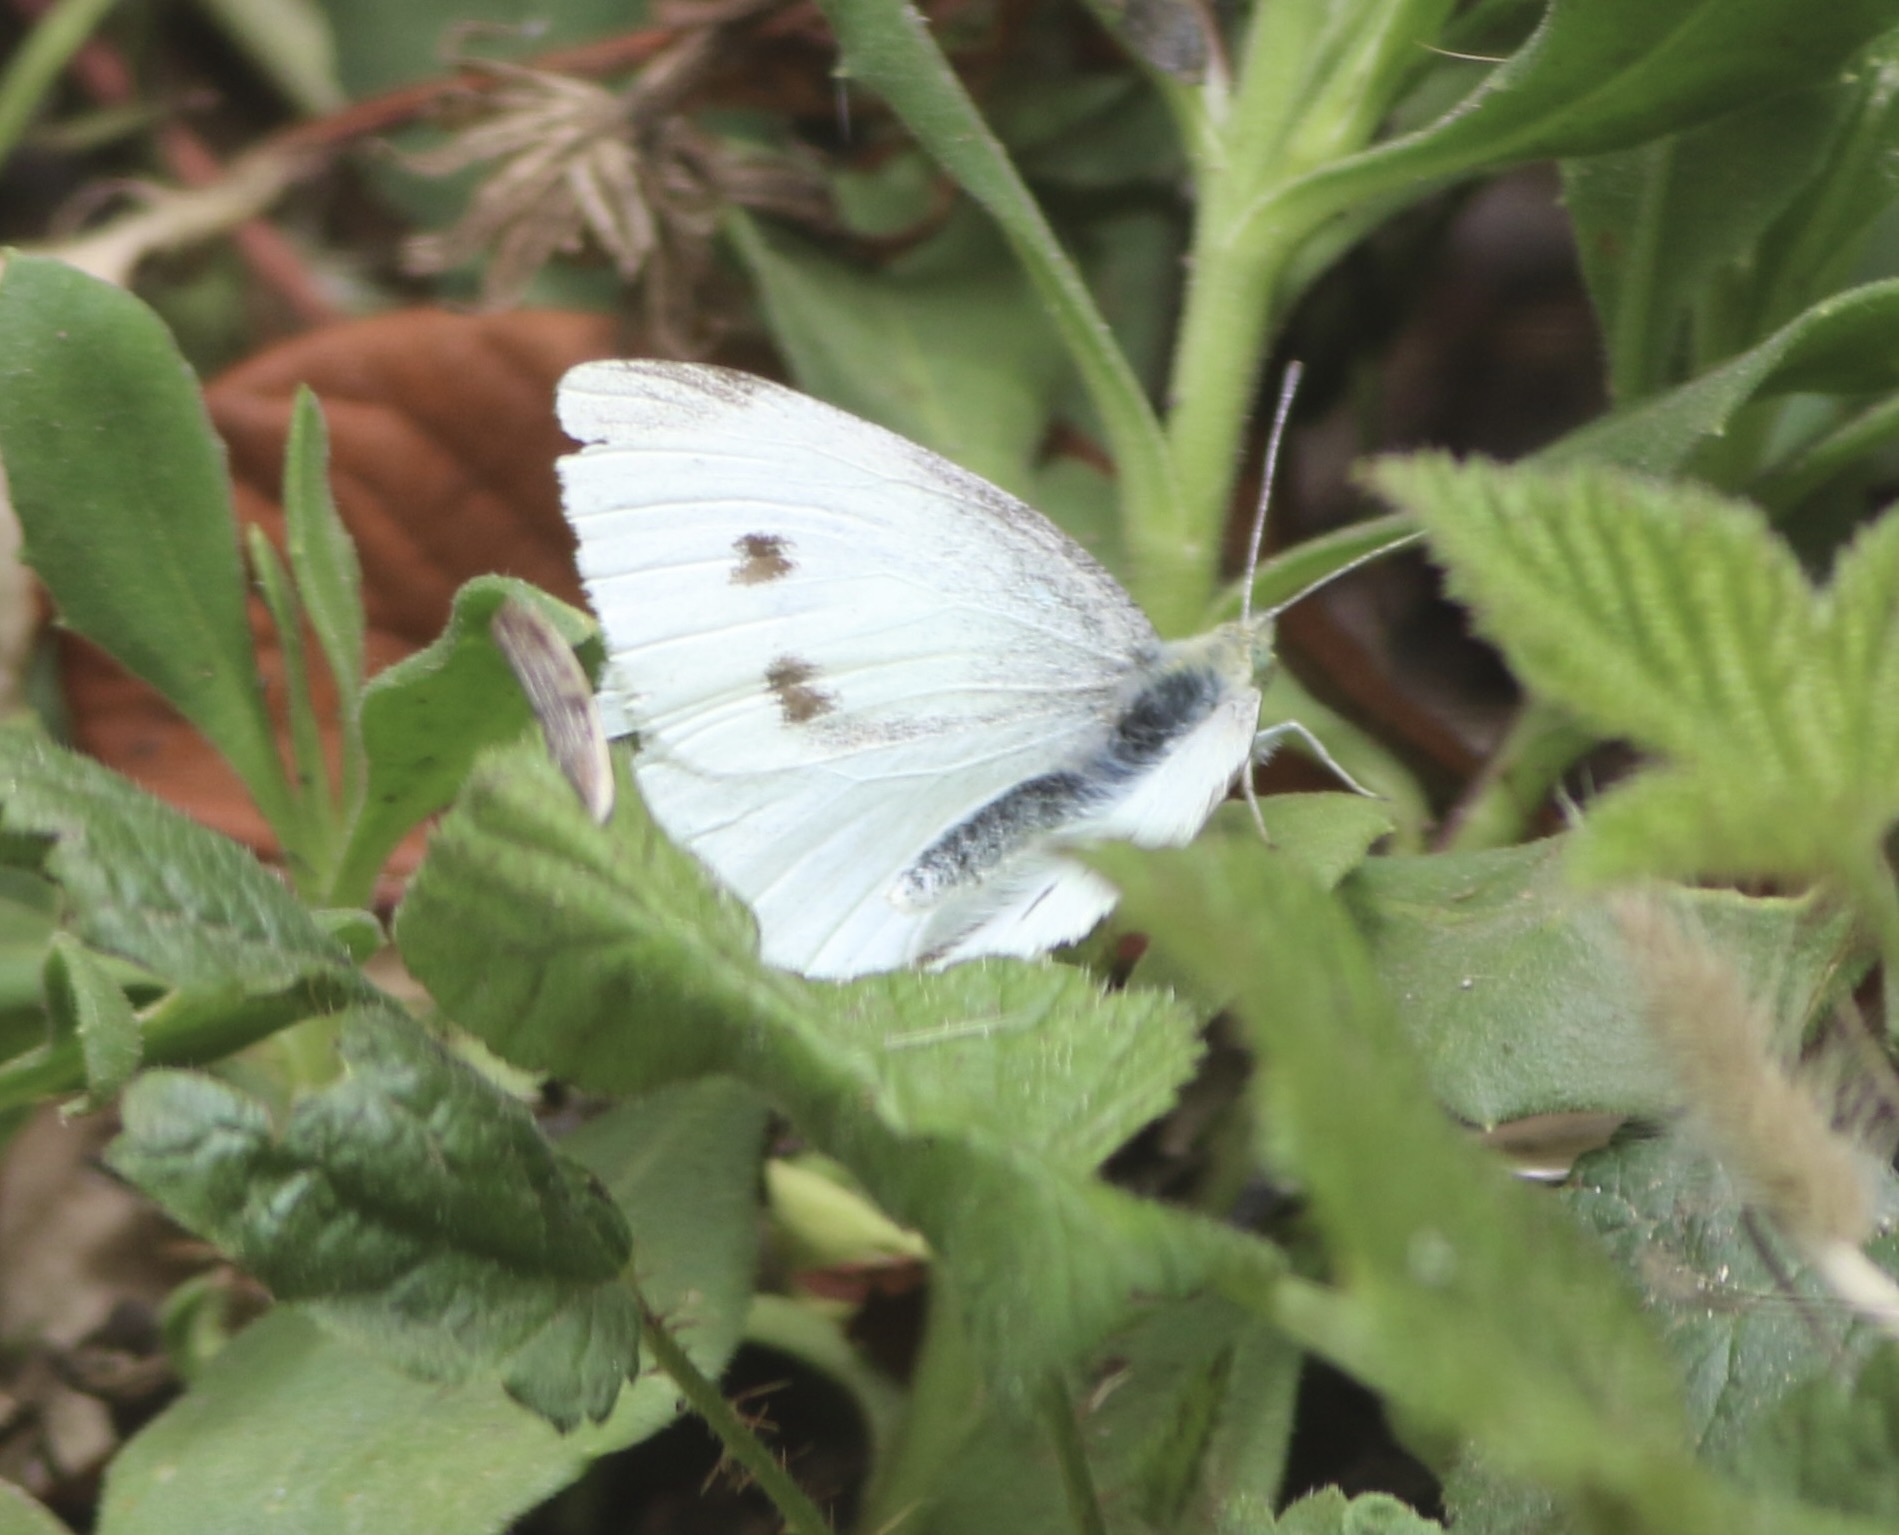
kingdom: Animalia
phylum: Arthropoda
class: Insecta
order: Lepidoptera
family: Pieridae
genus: Pieris
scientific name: Pieris rapae
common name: Small white
